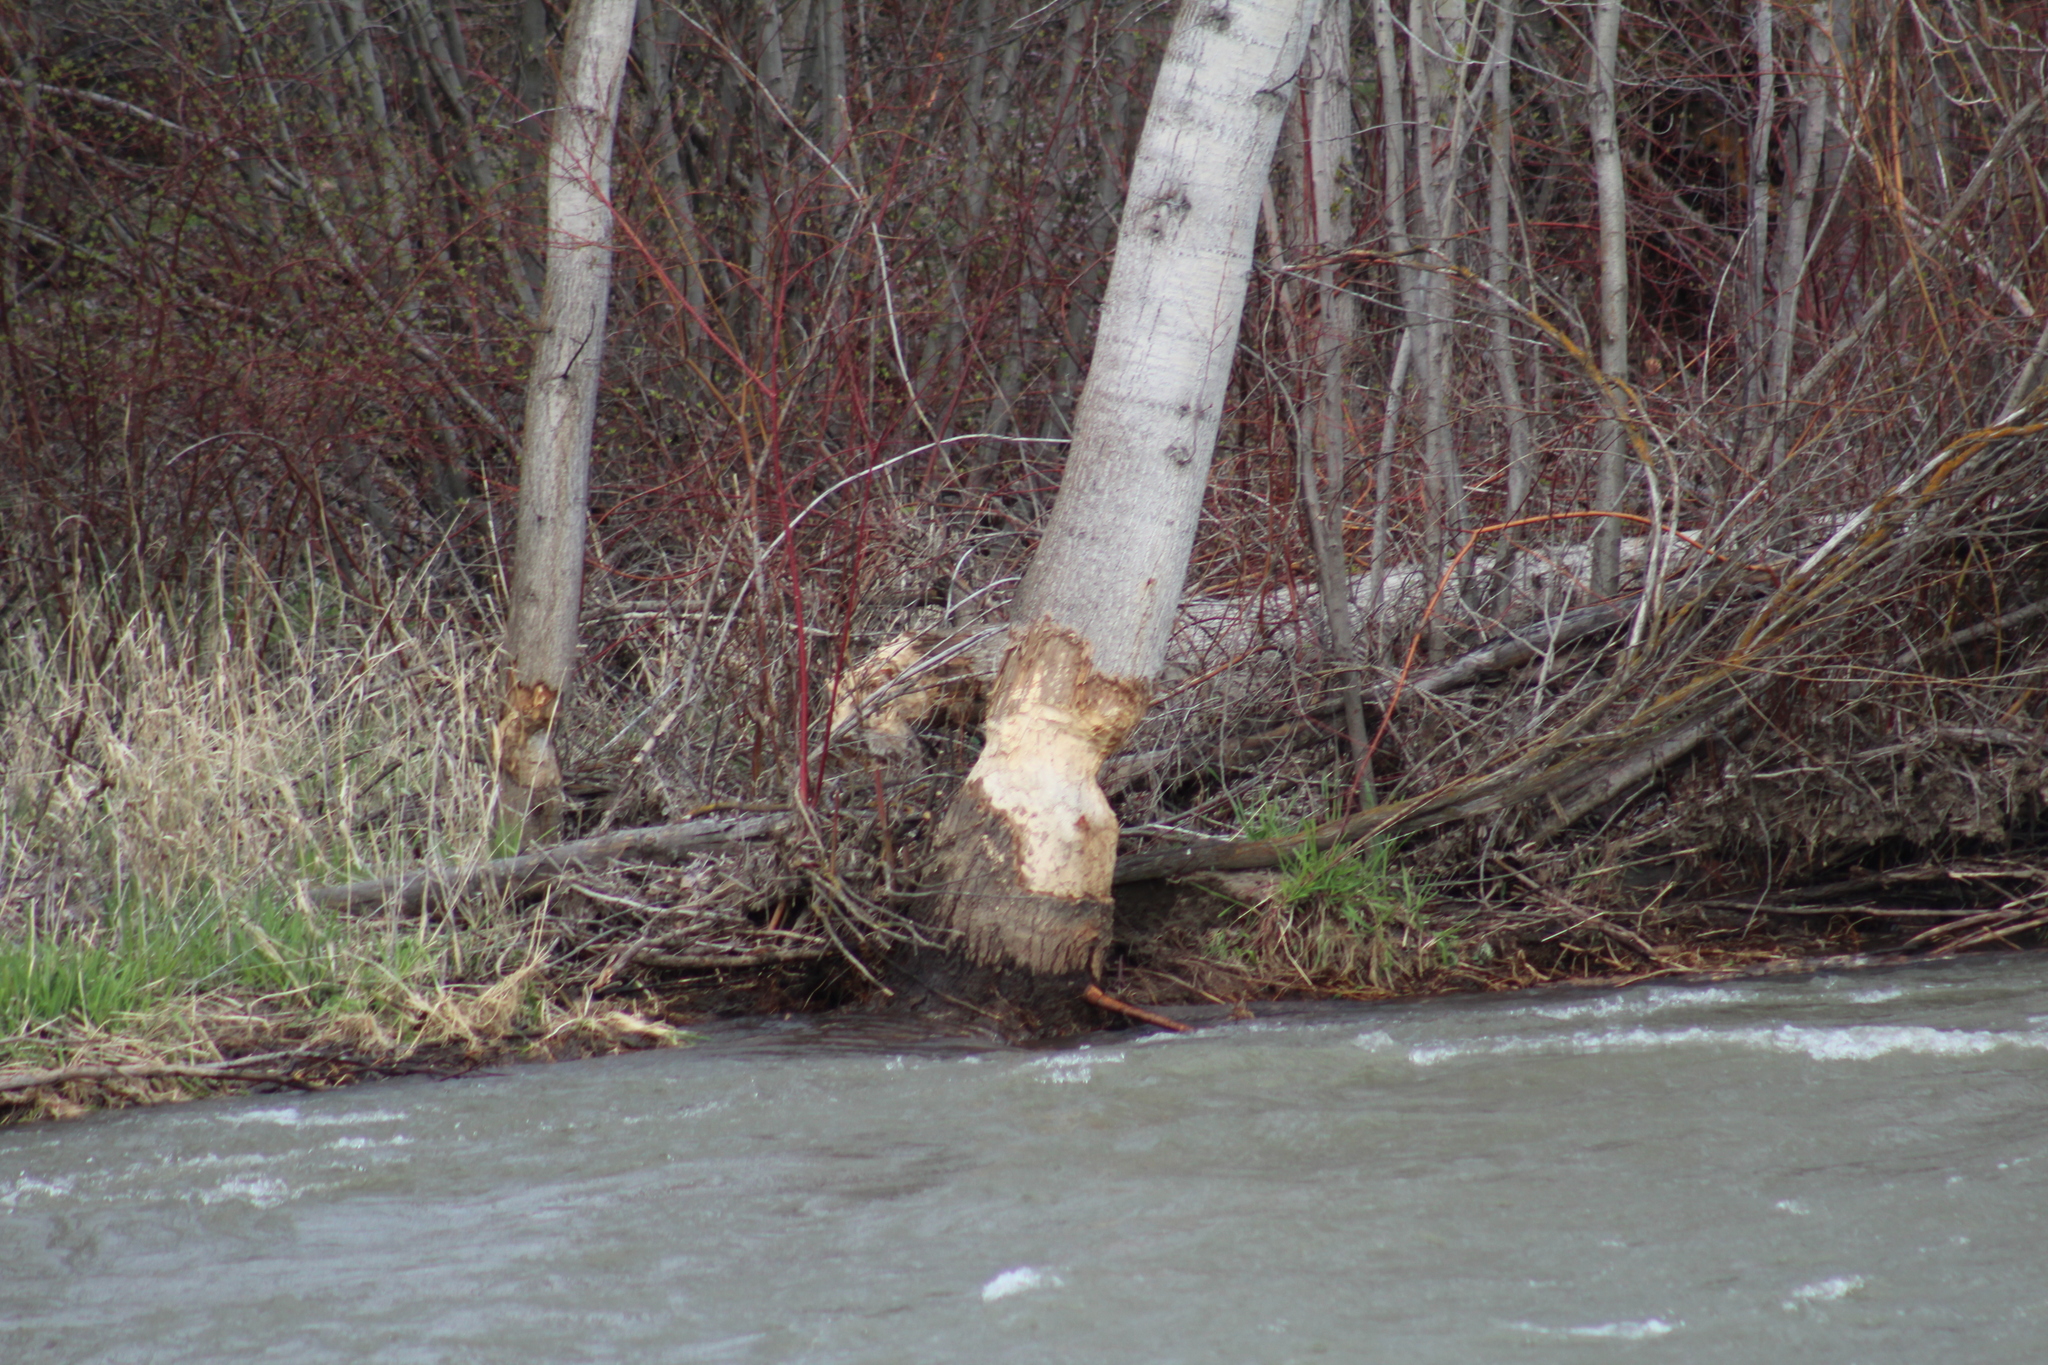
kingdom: Animalia
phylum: Chordata
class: Mammalia
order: Rodentia
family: Castoridae
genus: Castor
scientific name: Castor canadensis
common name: American beaver
